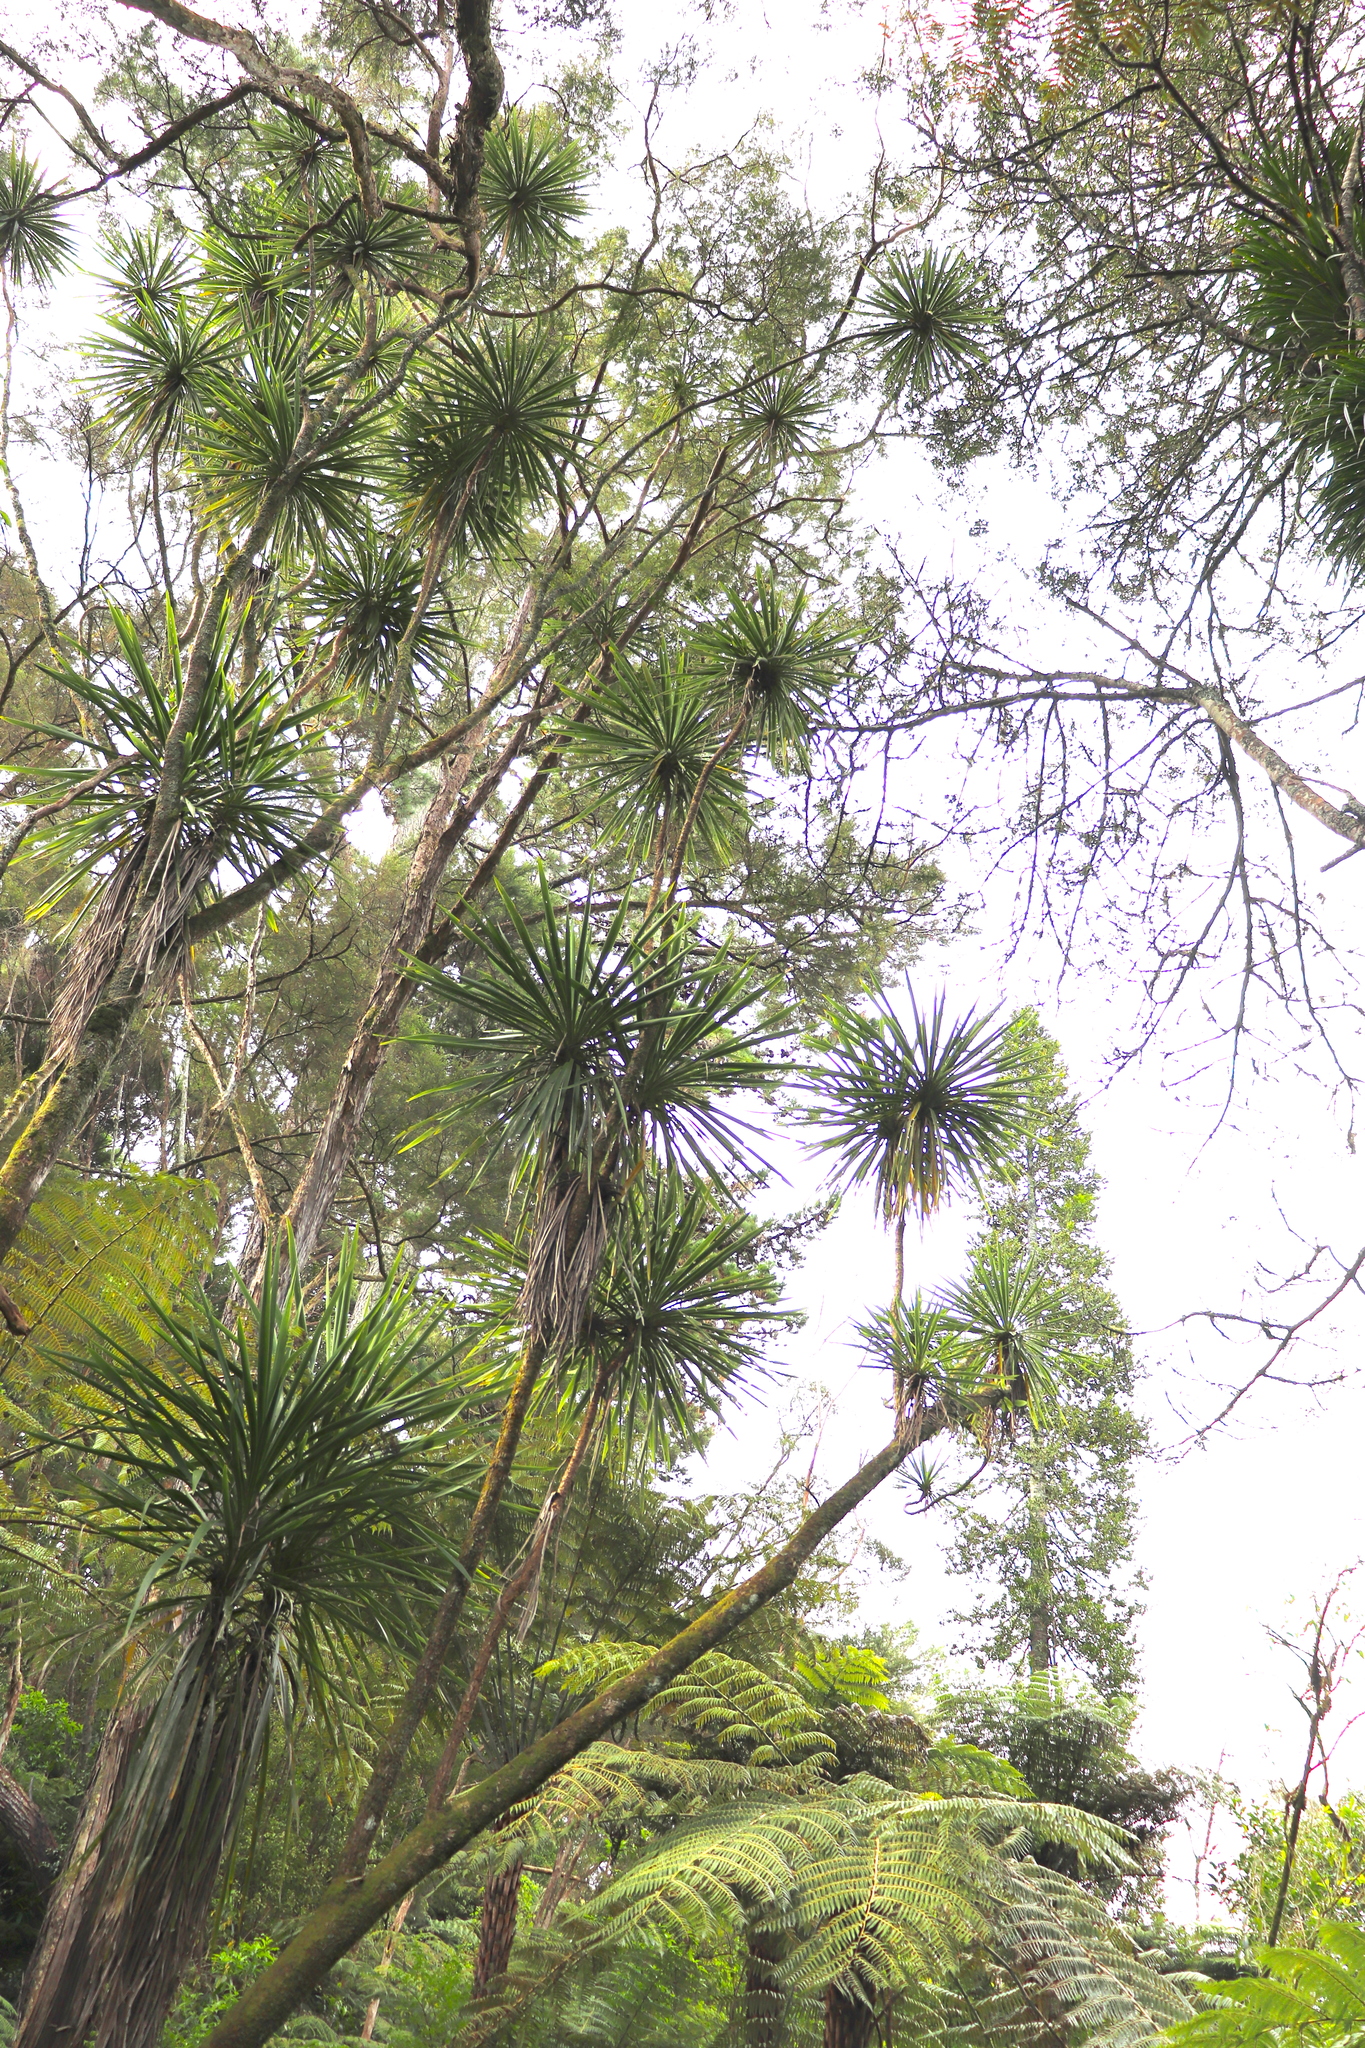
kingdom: Plantae
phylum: Tracheophyta
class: Liliopsida
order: Asparagales
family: Asparagaceae
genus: Cordyline
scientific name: Cordyline australis
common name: Cabbage-palm
